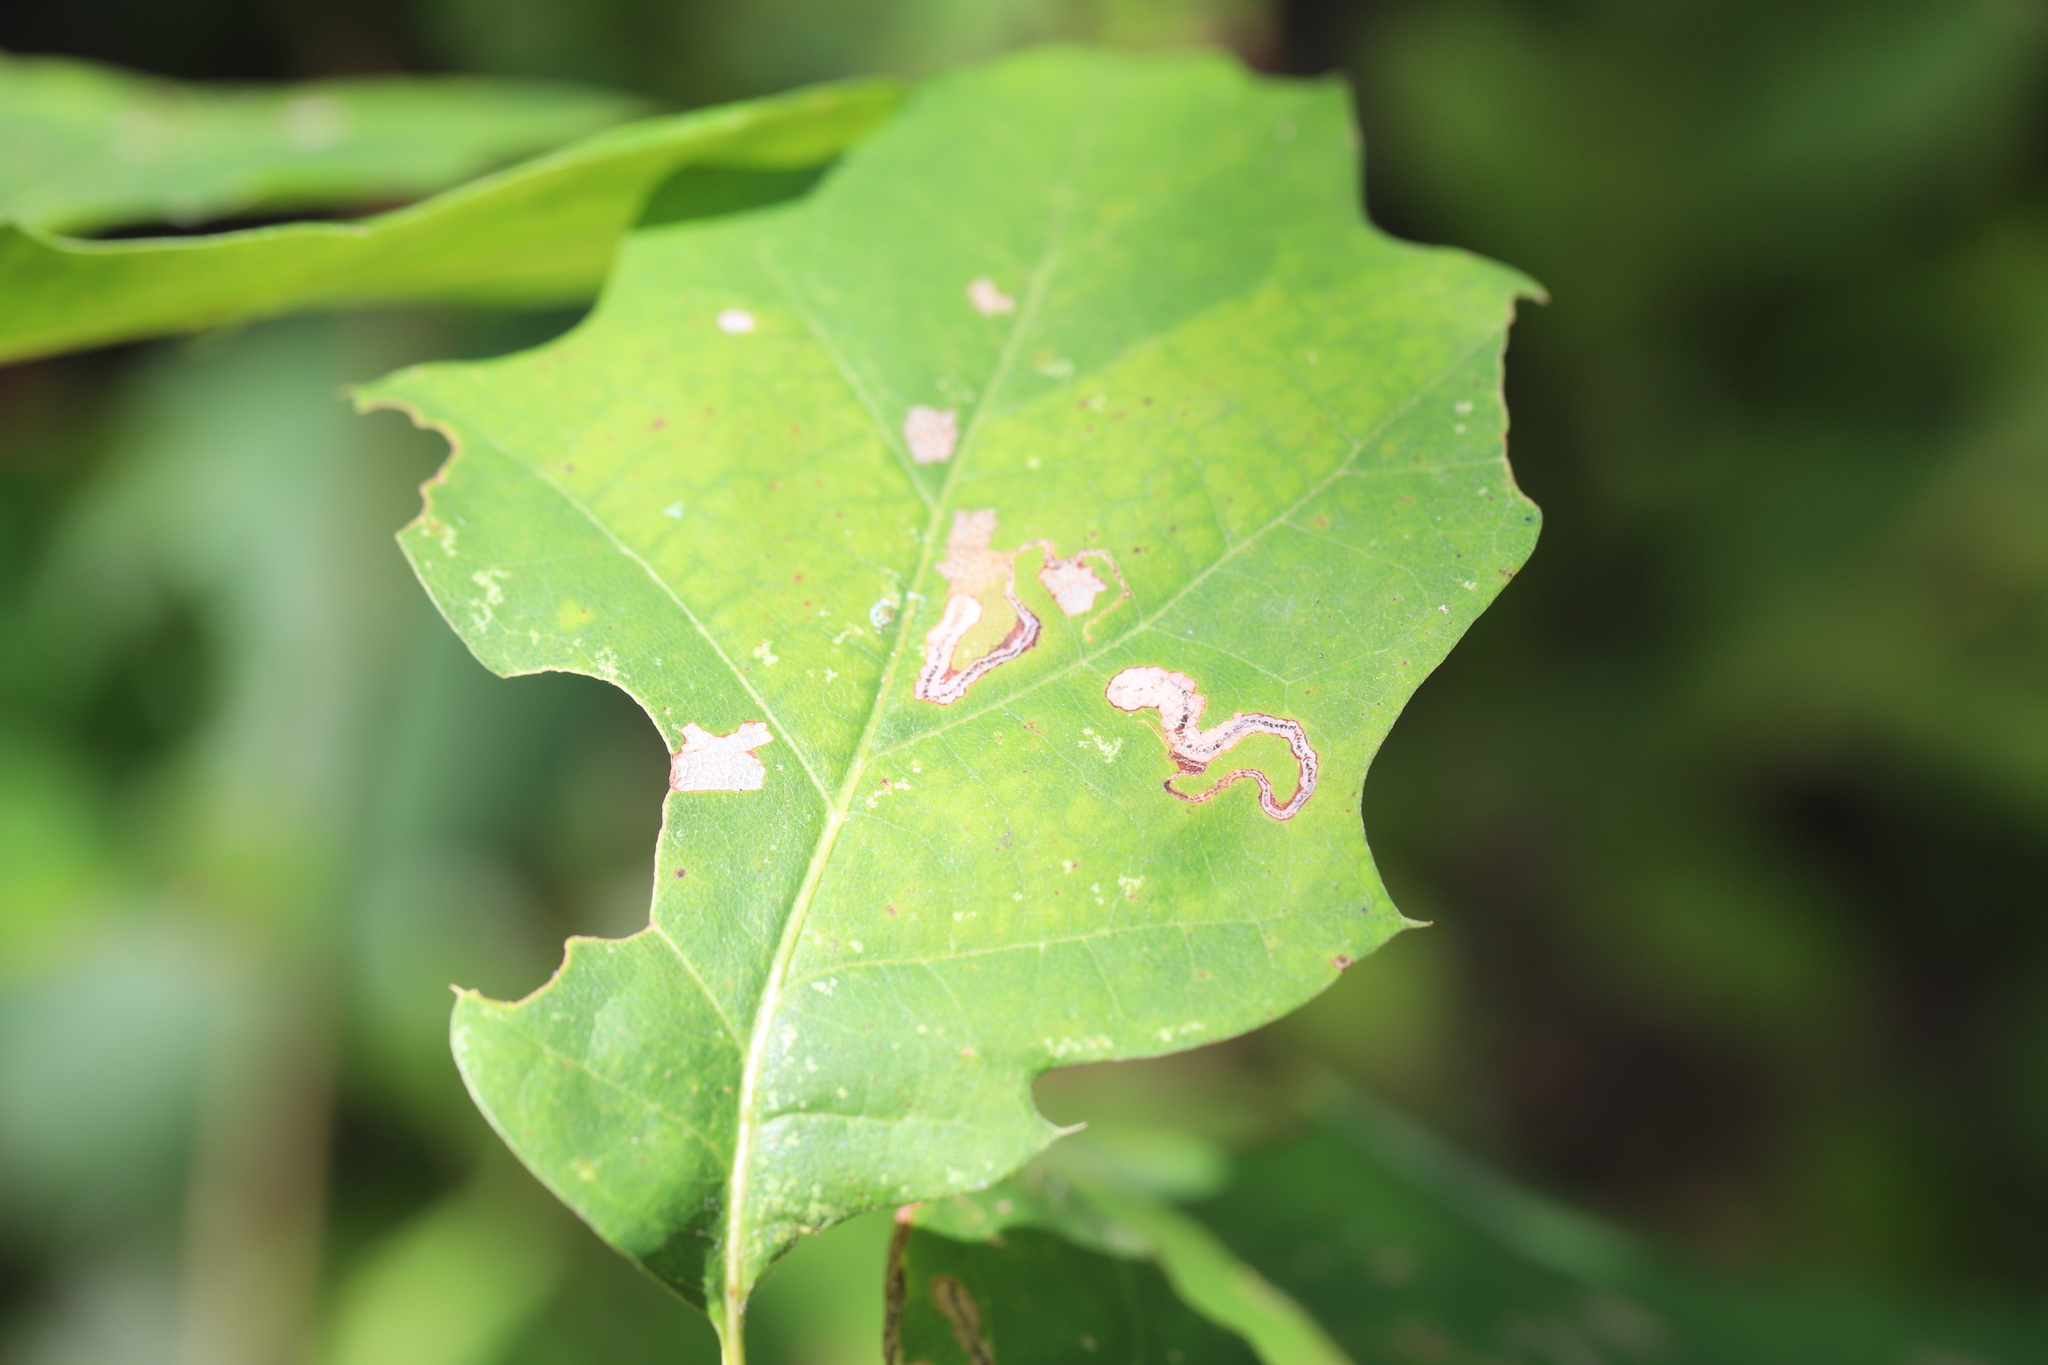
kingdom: Animalia
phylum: Arthropoda
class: Insecta
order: Lepidoptera
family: Nepticulidae
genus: Stigmella
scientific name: Stigmella quercipulchella
